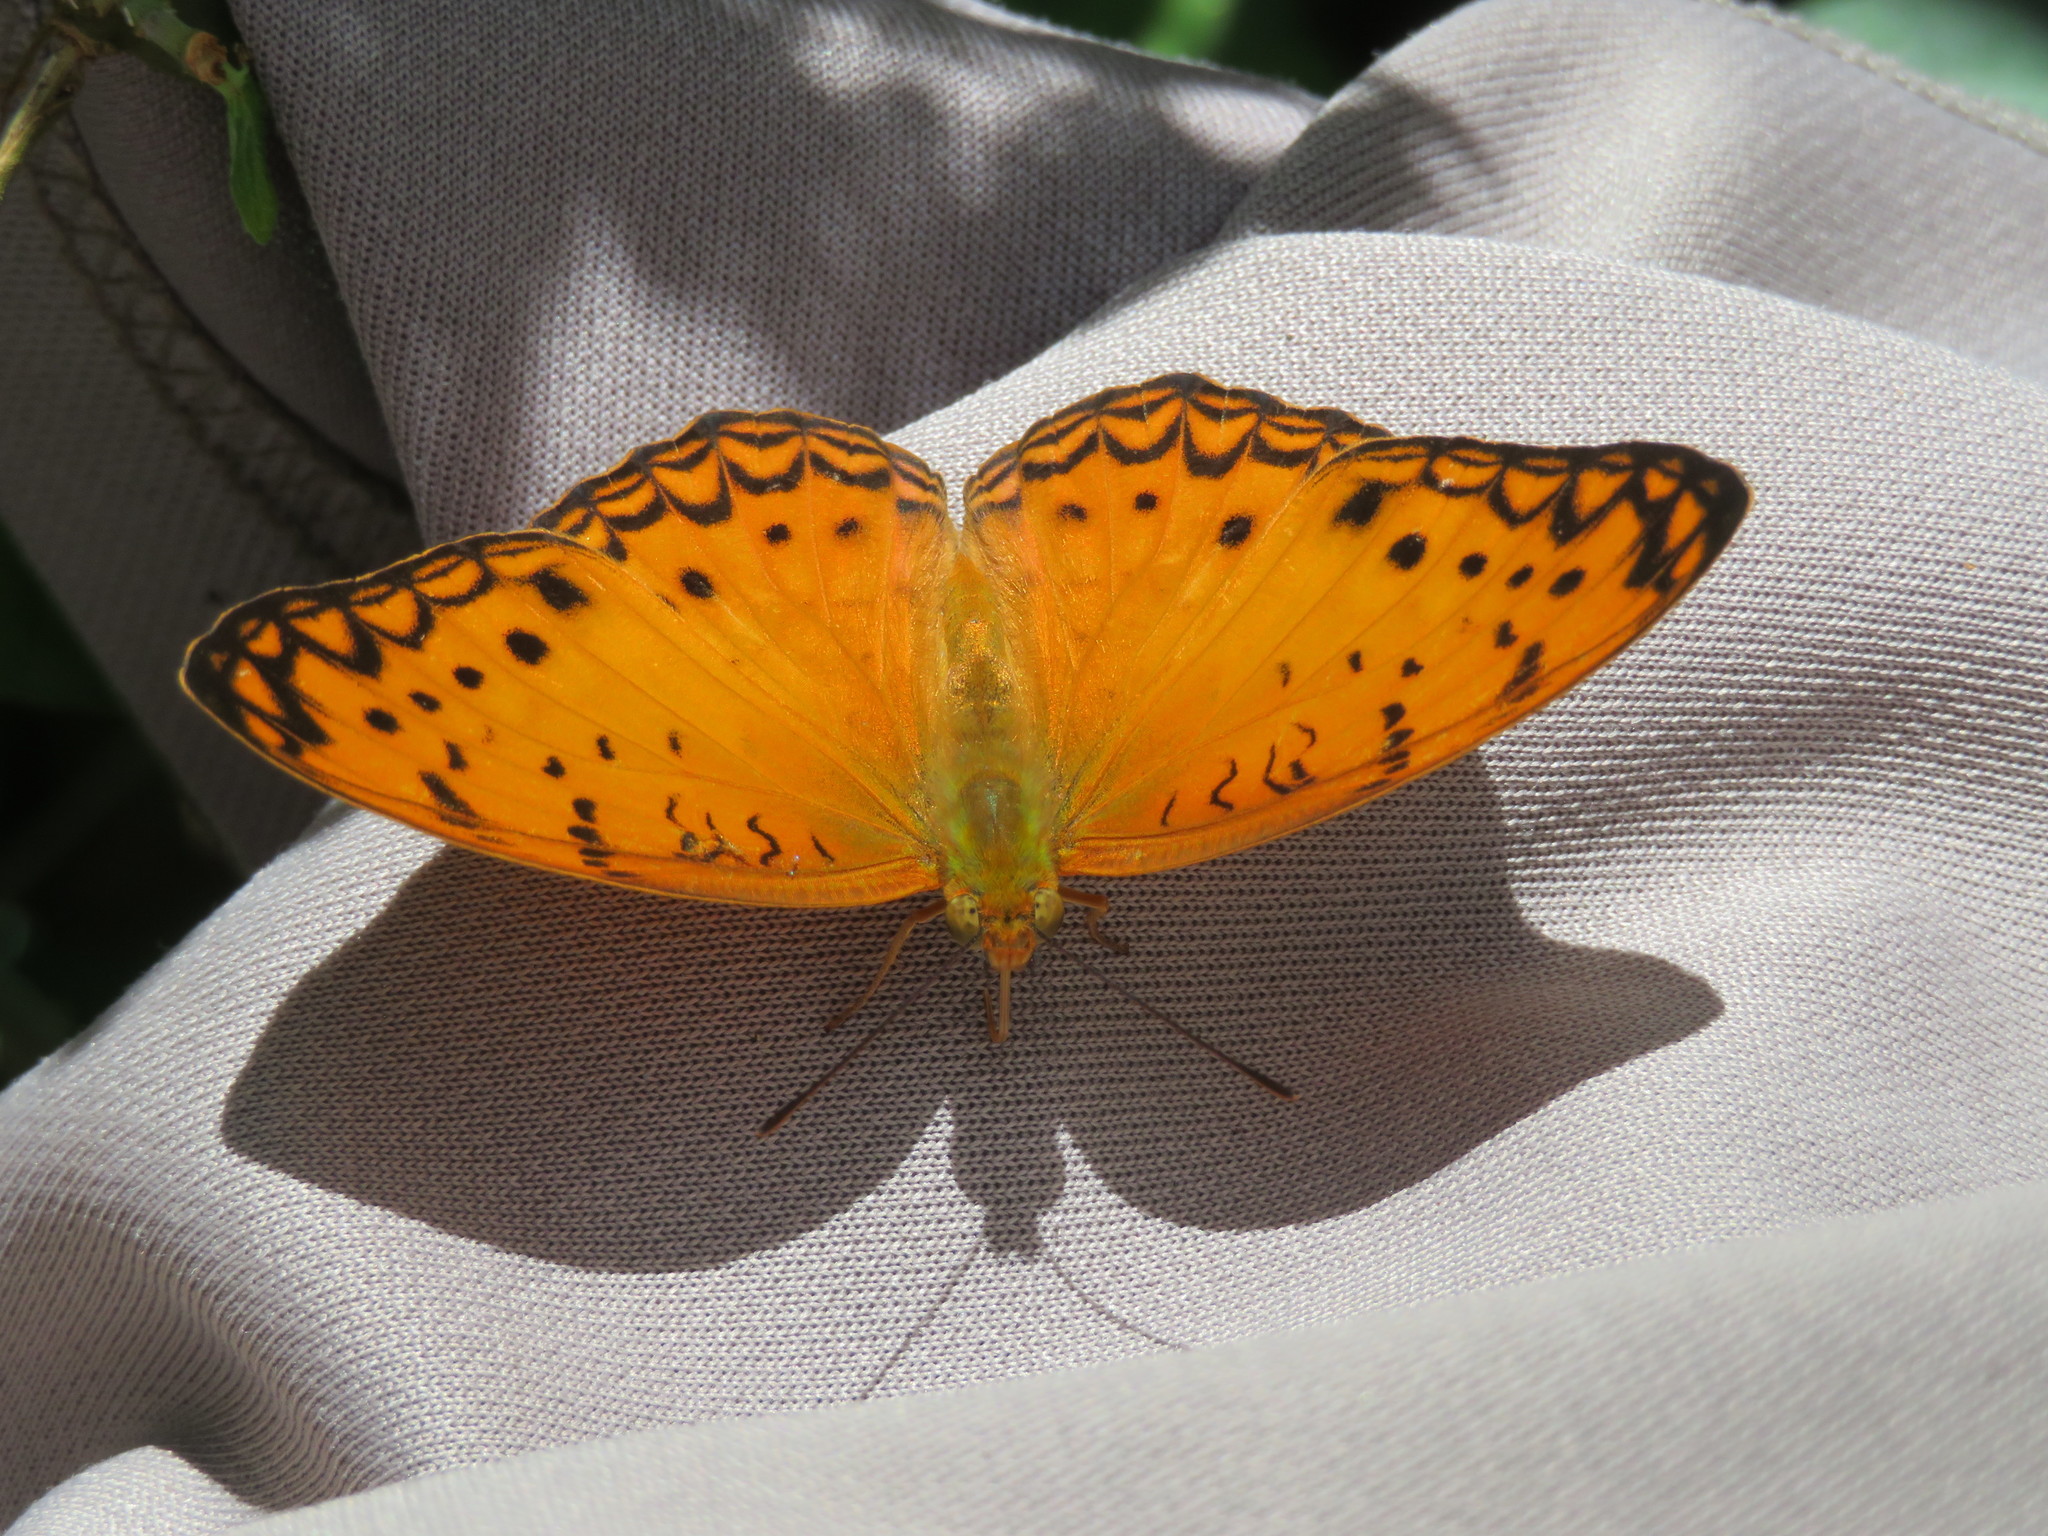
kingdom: Animalia
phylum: Arthropoda
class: Insecta
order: Lepidoptera
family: Nymphalidae
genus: Phalanta
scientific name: Phalanta columbina
